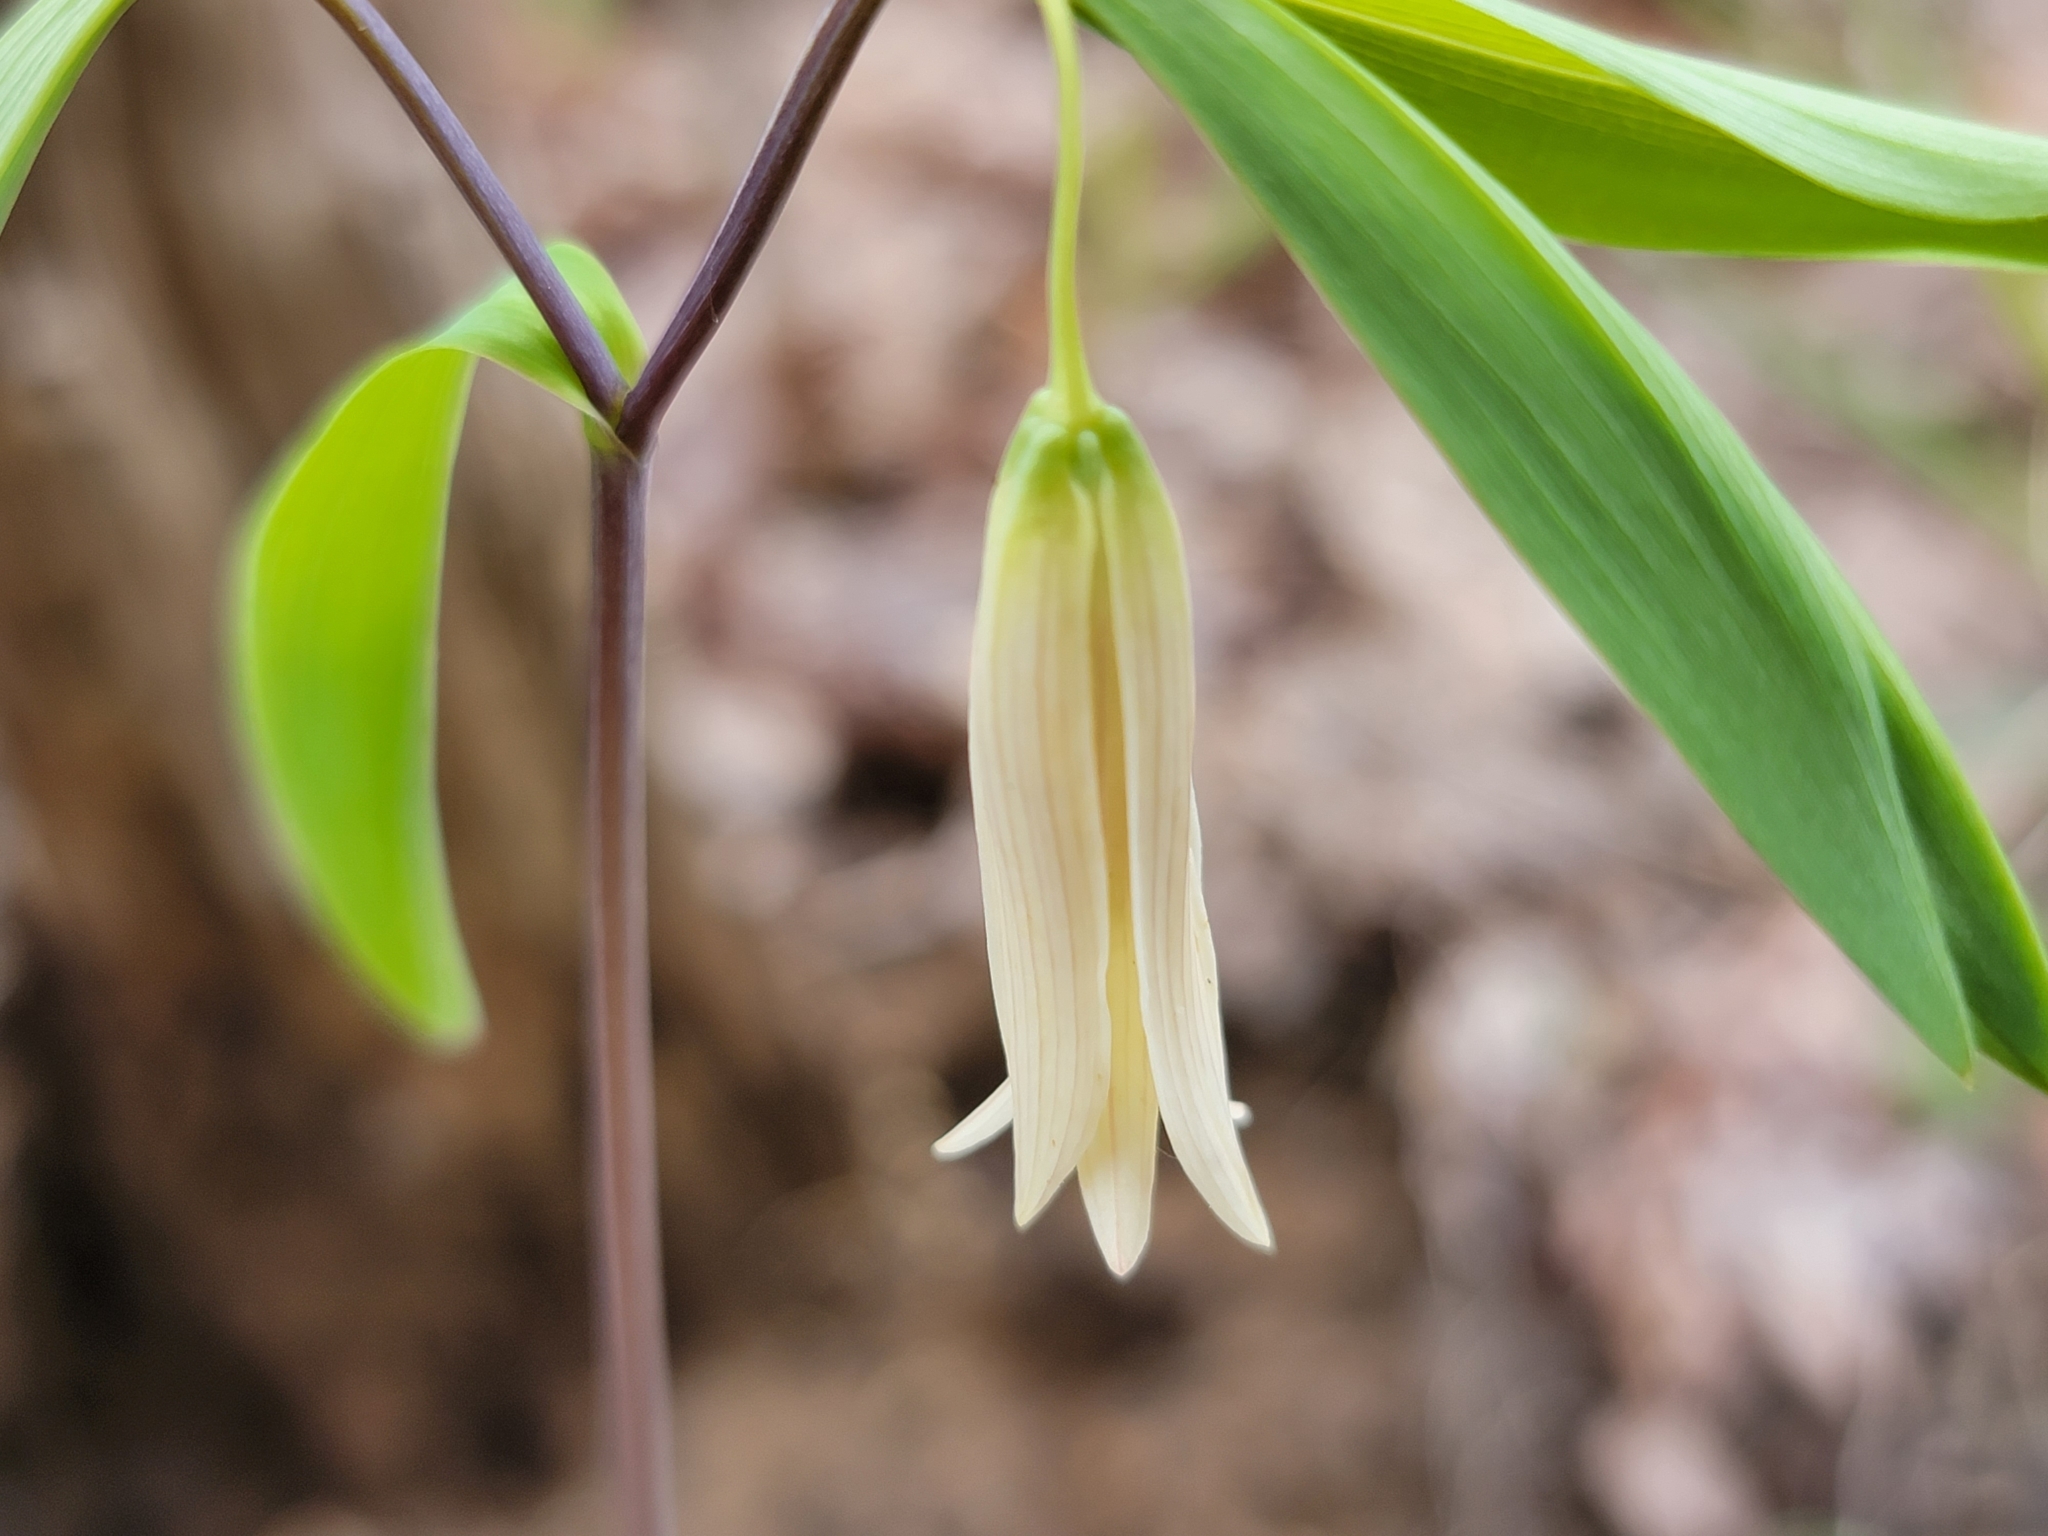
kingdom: Plantae
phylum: Tracheophyta
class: Liliopsida
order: Liliales
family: Colchicaceae
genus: Uvularia
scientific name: Uvularia sessilifolia
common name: Straw-lily
